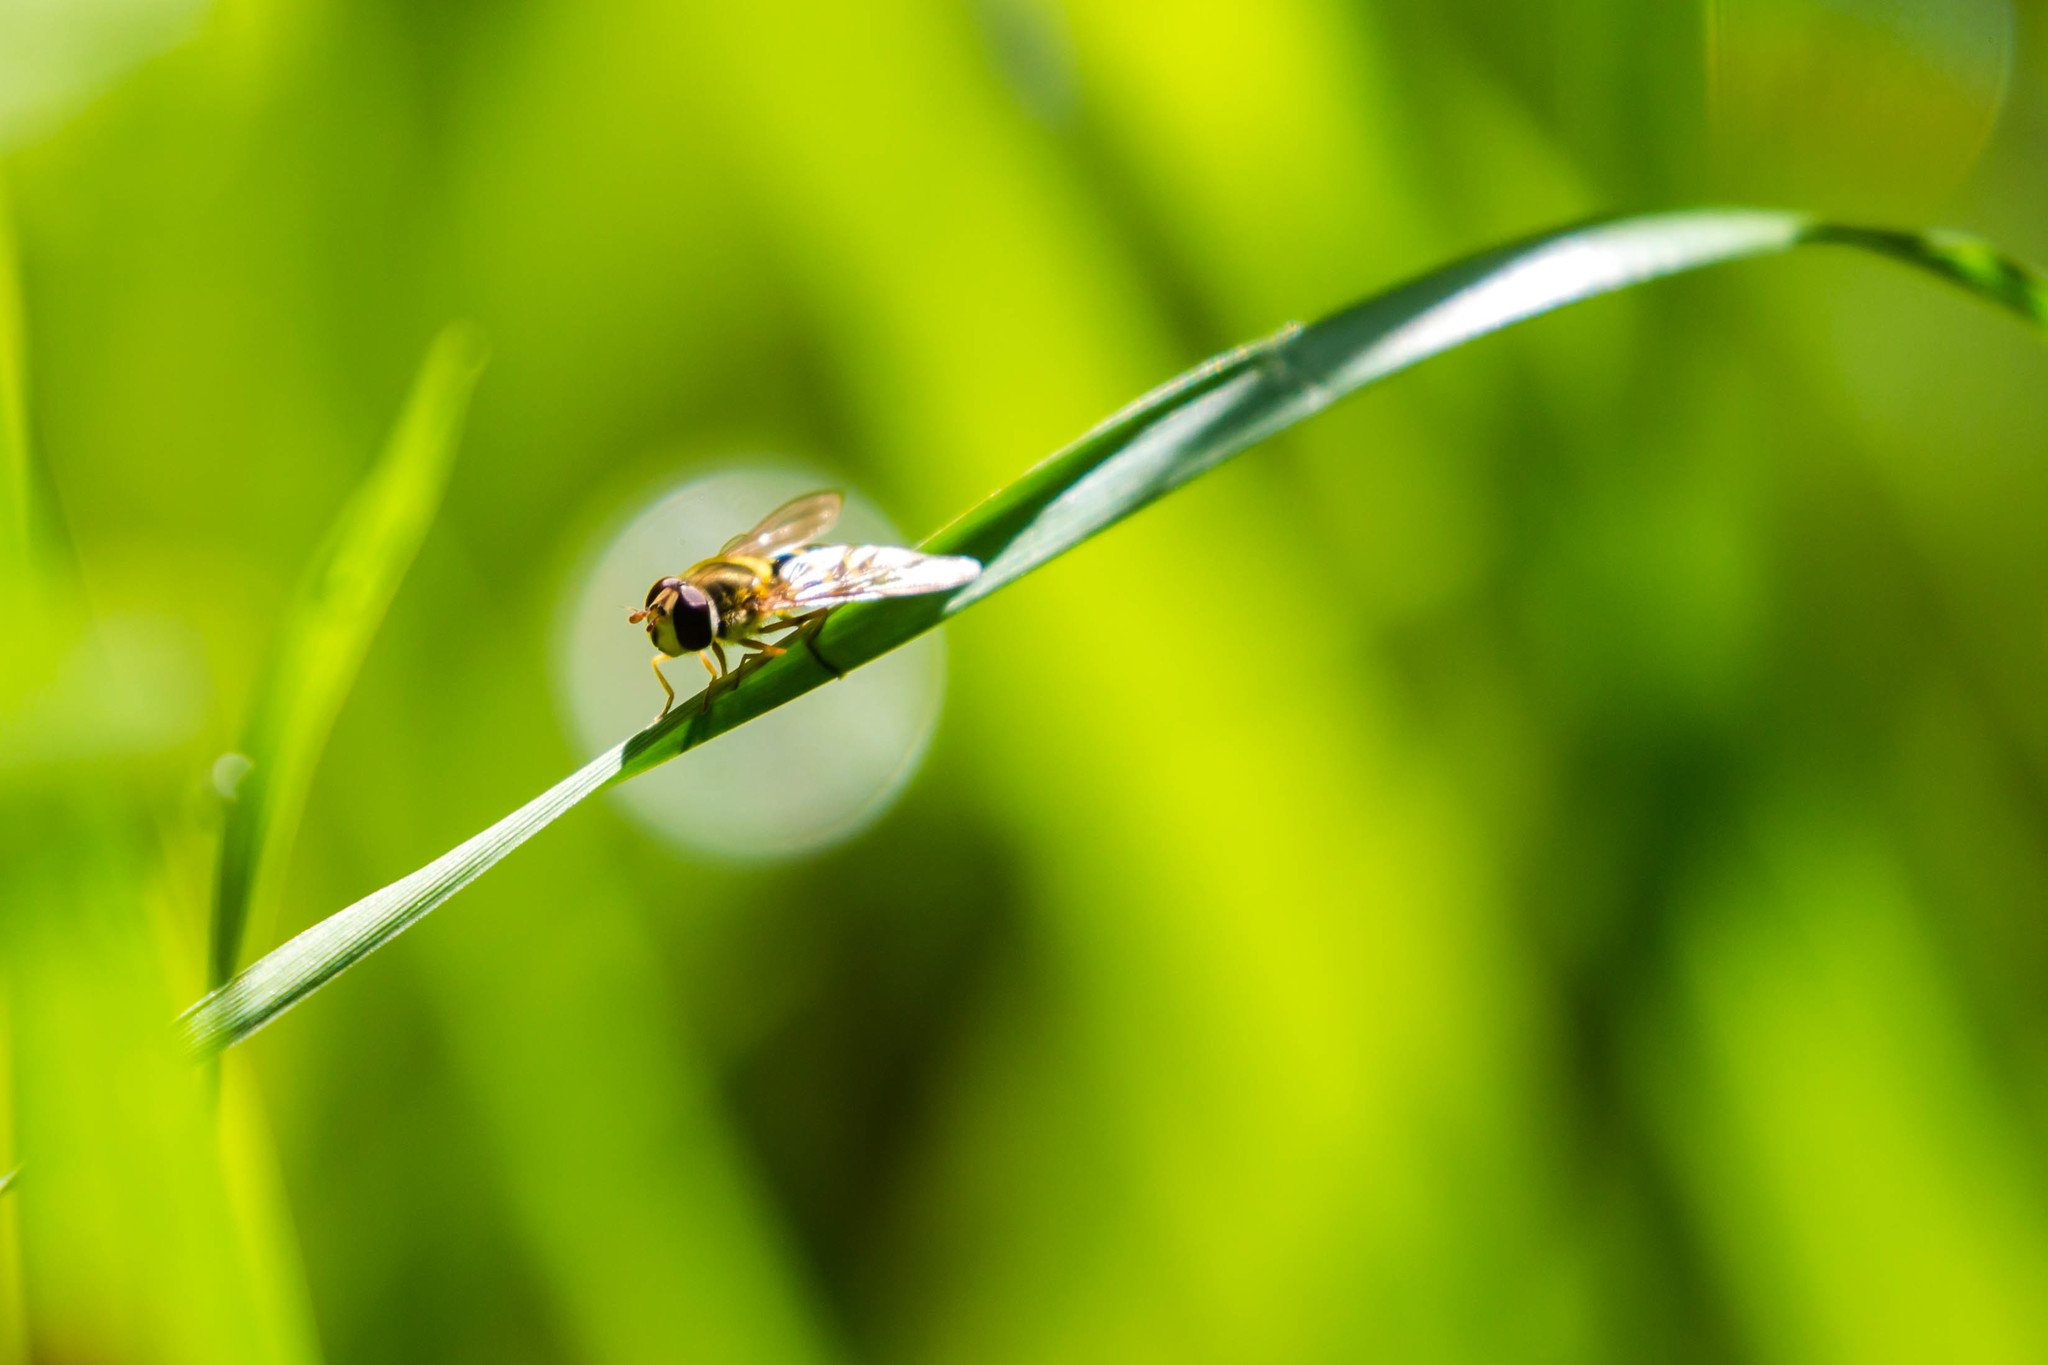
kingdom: Animalia
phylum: Arthropoda
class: Insecta
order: Diptera
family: Syrphidae
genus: Syrphus
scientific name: Syrphus rectus
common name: Yellow-legged flower fly
